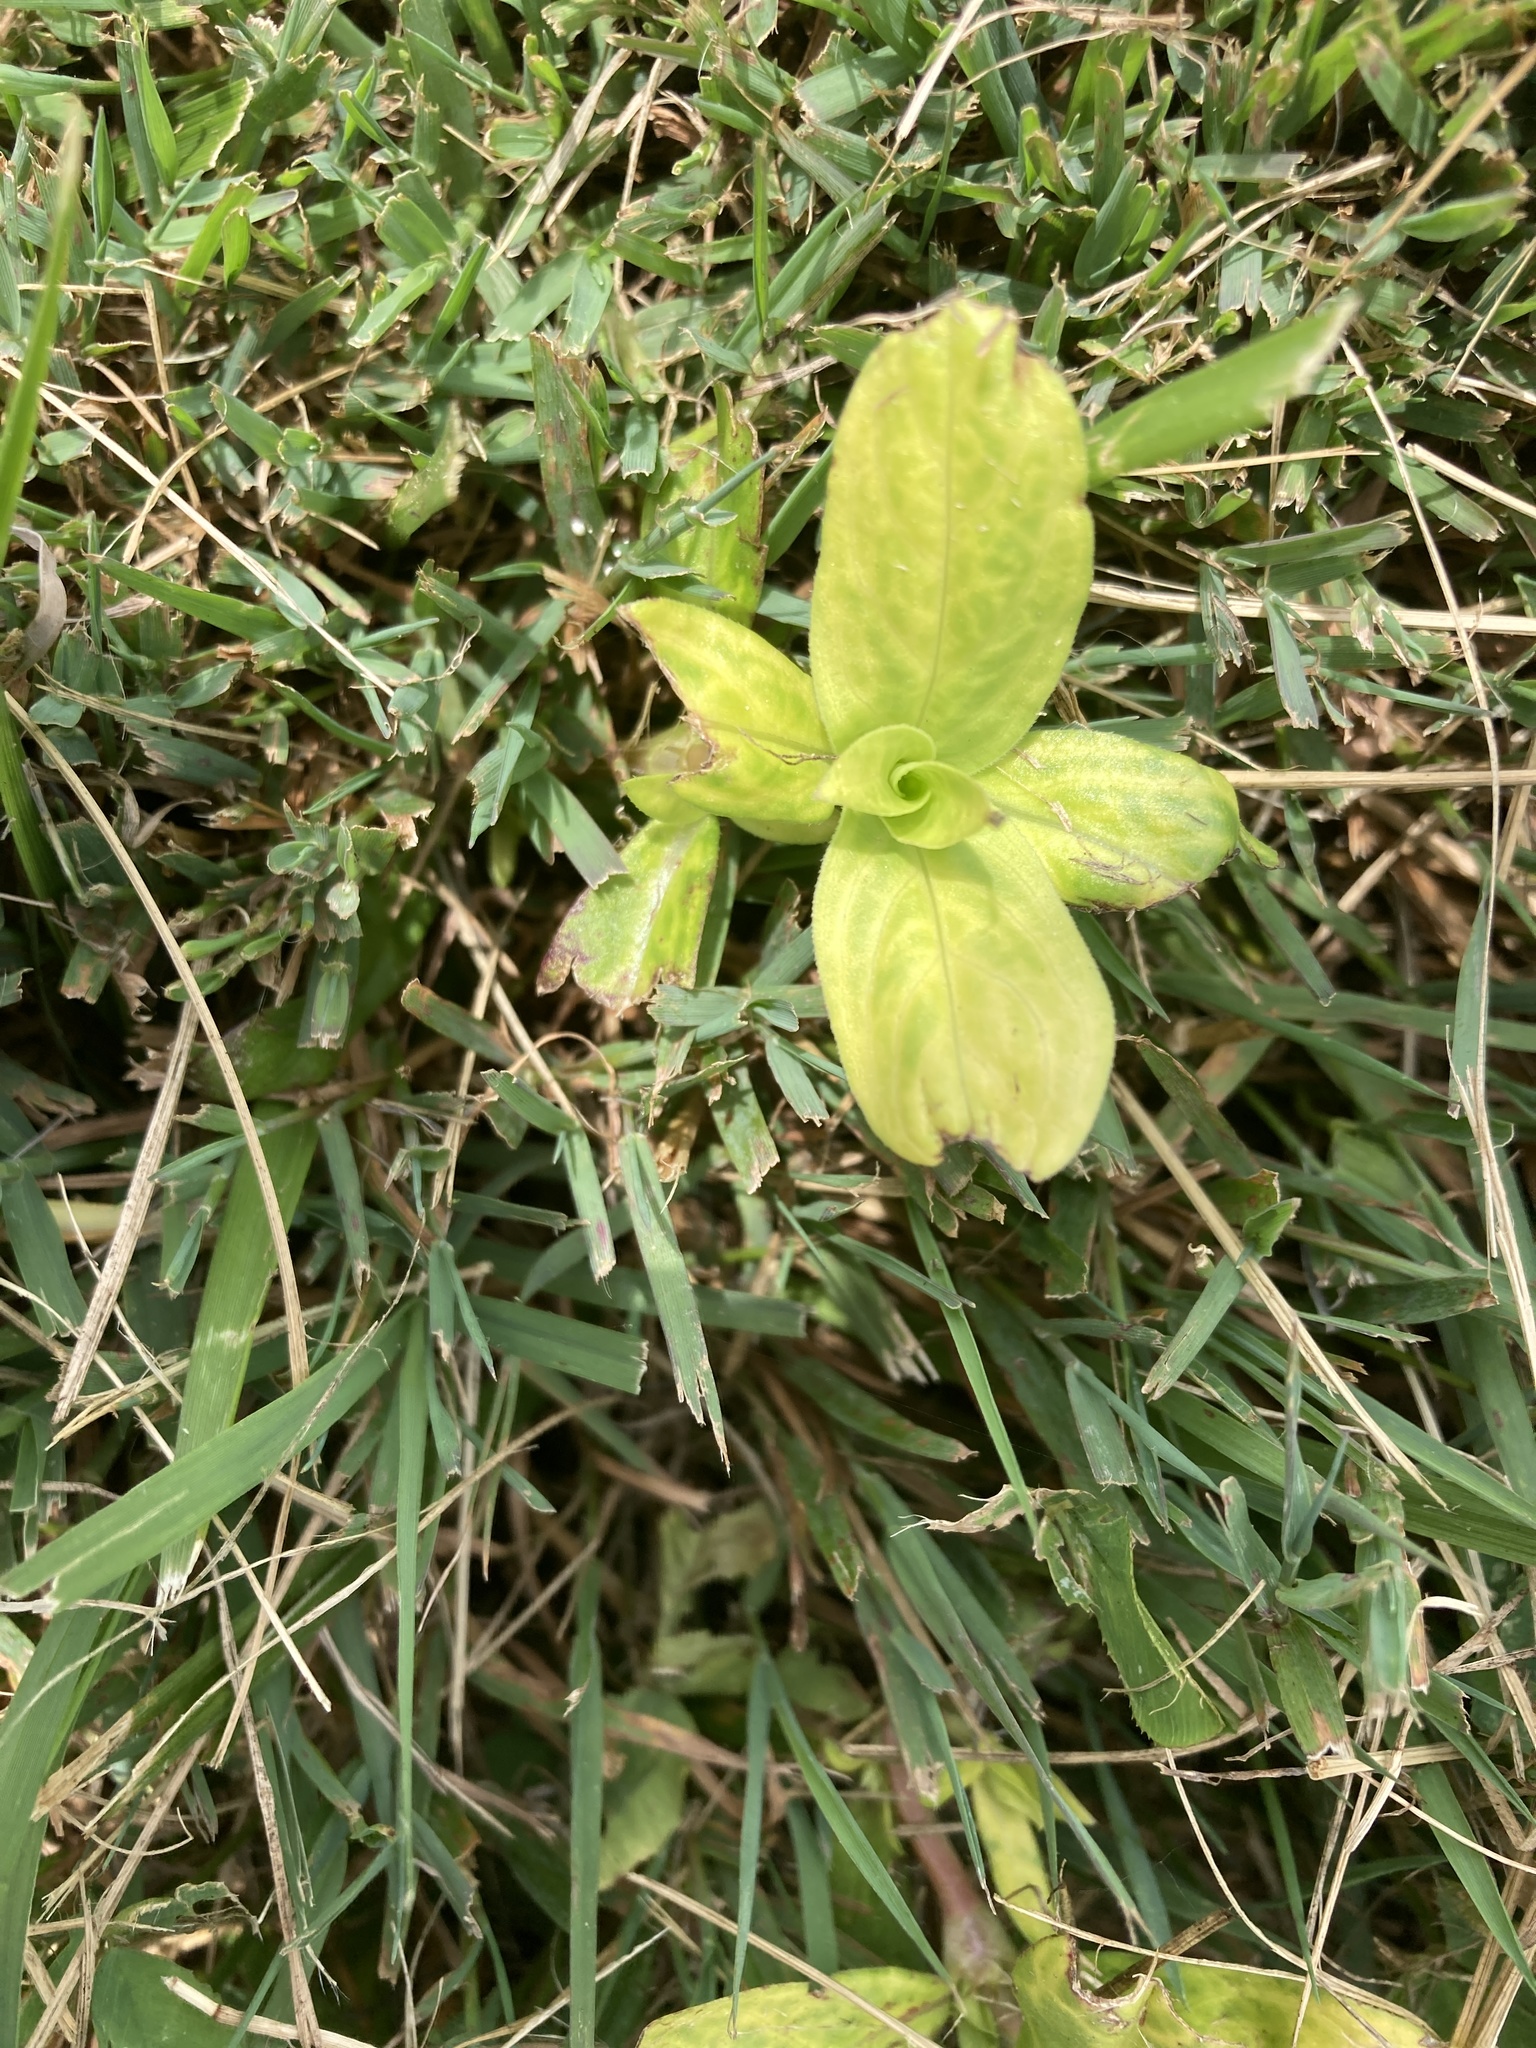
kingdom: Plantae
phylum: Tracheophyta
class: Magnoliopsida
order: Gentianales
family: Rubiaceae
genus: Diodia
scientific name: Diodia virginiana
